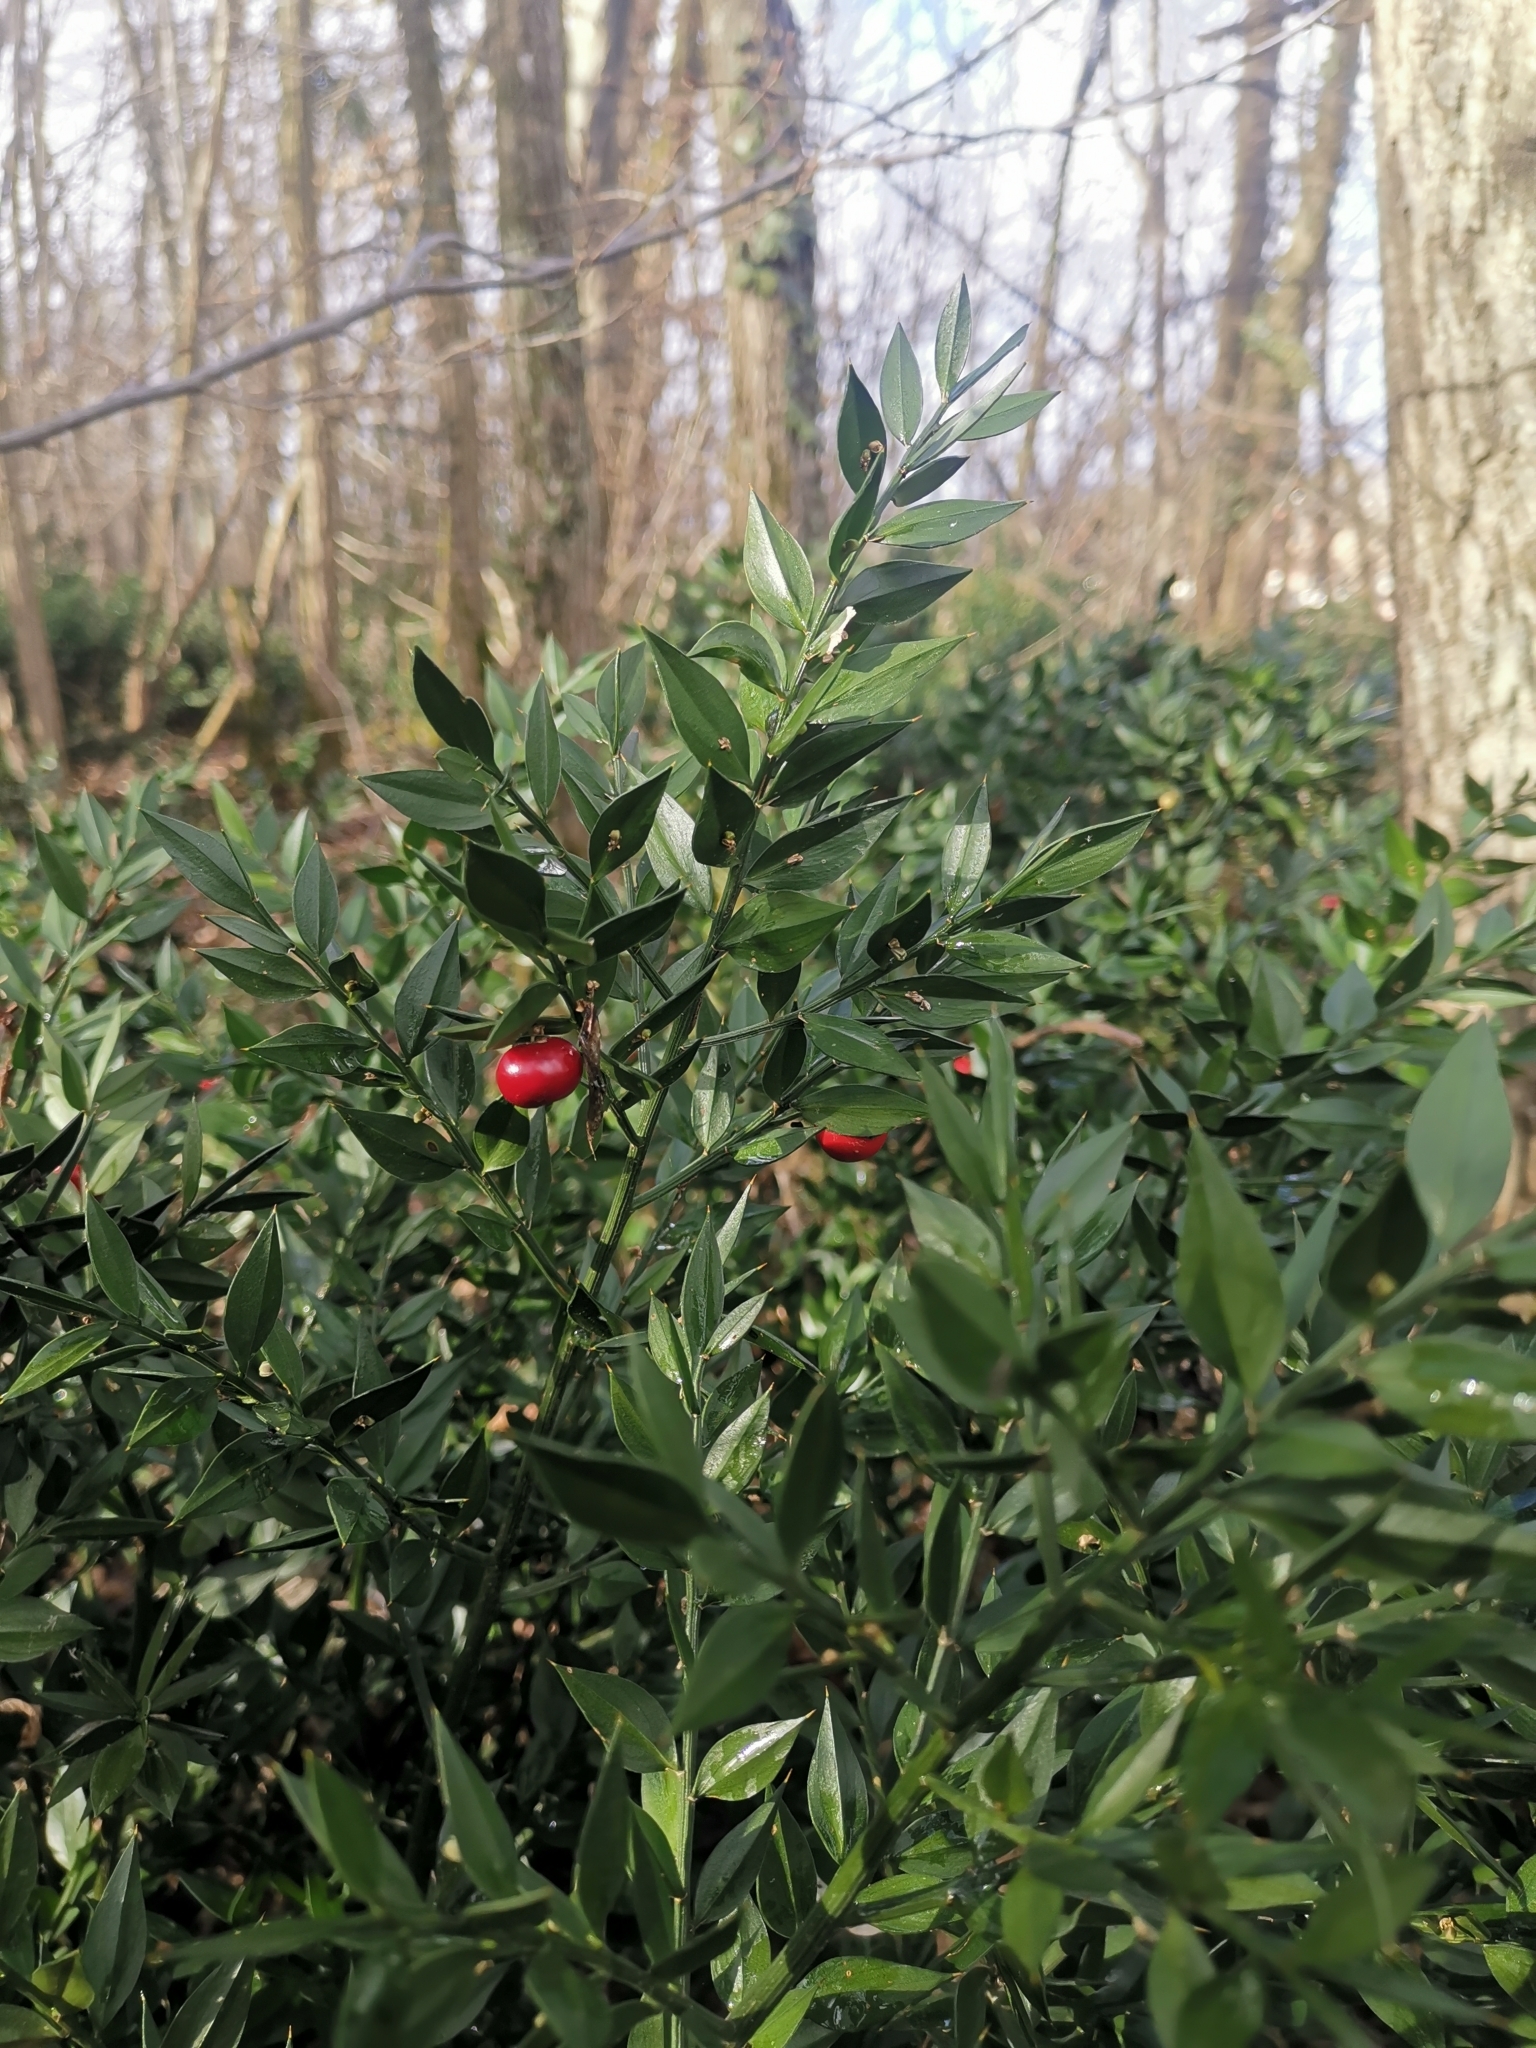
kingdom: Plantae
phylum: Tracheophyta
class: Liliopsida
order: Asparagales
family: Asparagaceae
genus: Ruscus
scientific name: Ruscus aculeatus
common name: Butcher's-broom
